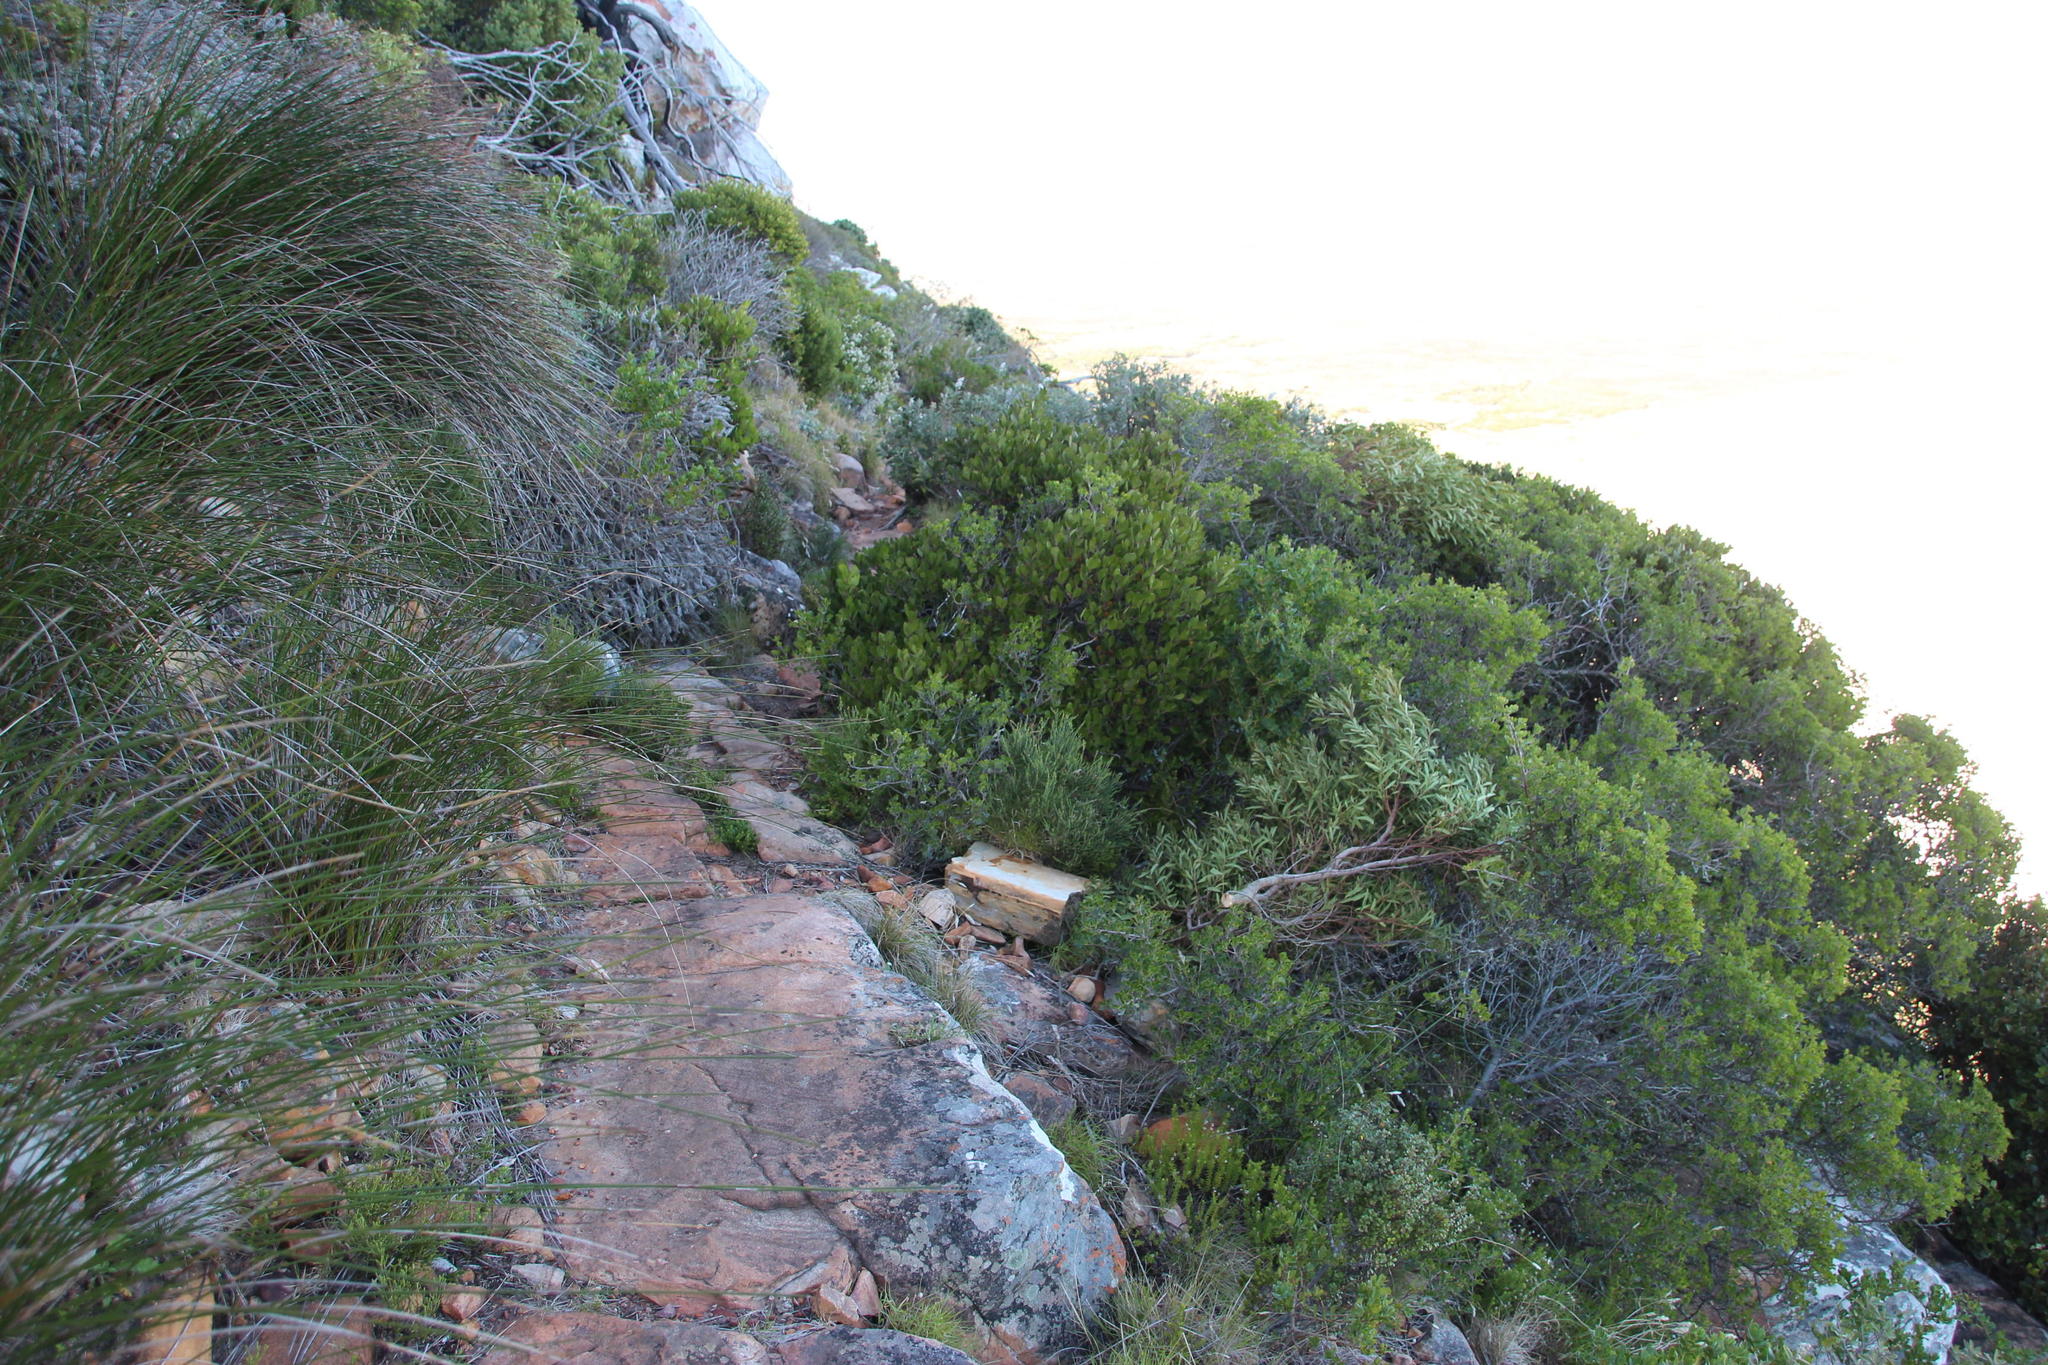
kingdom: Plantae
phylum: Tracheophyta
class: Magnoliopsida
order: Celastrales
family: Celastraceae
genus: Pterocelastrus
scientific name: Pterocelastrus tricuspidatus
